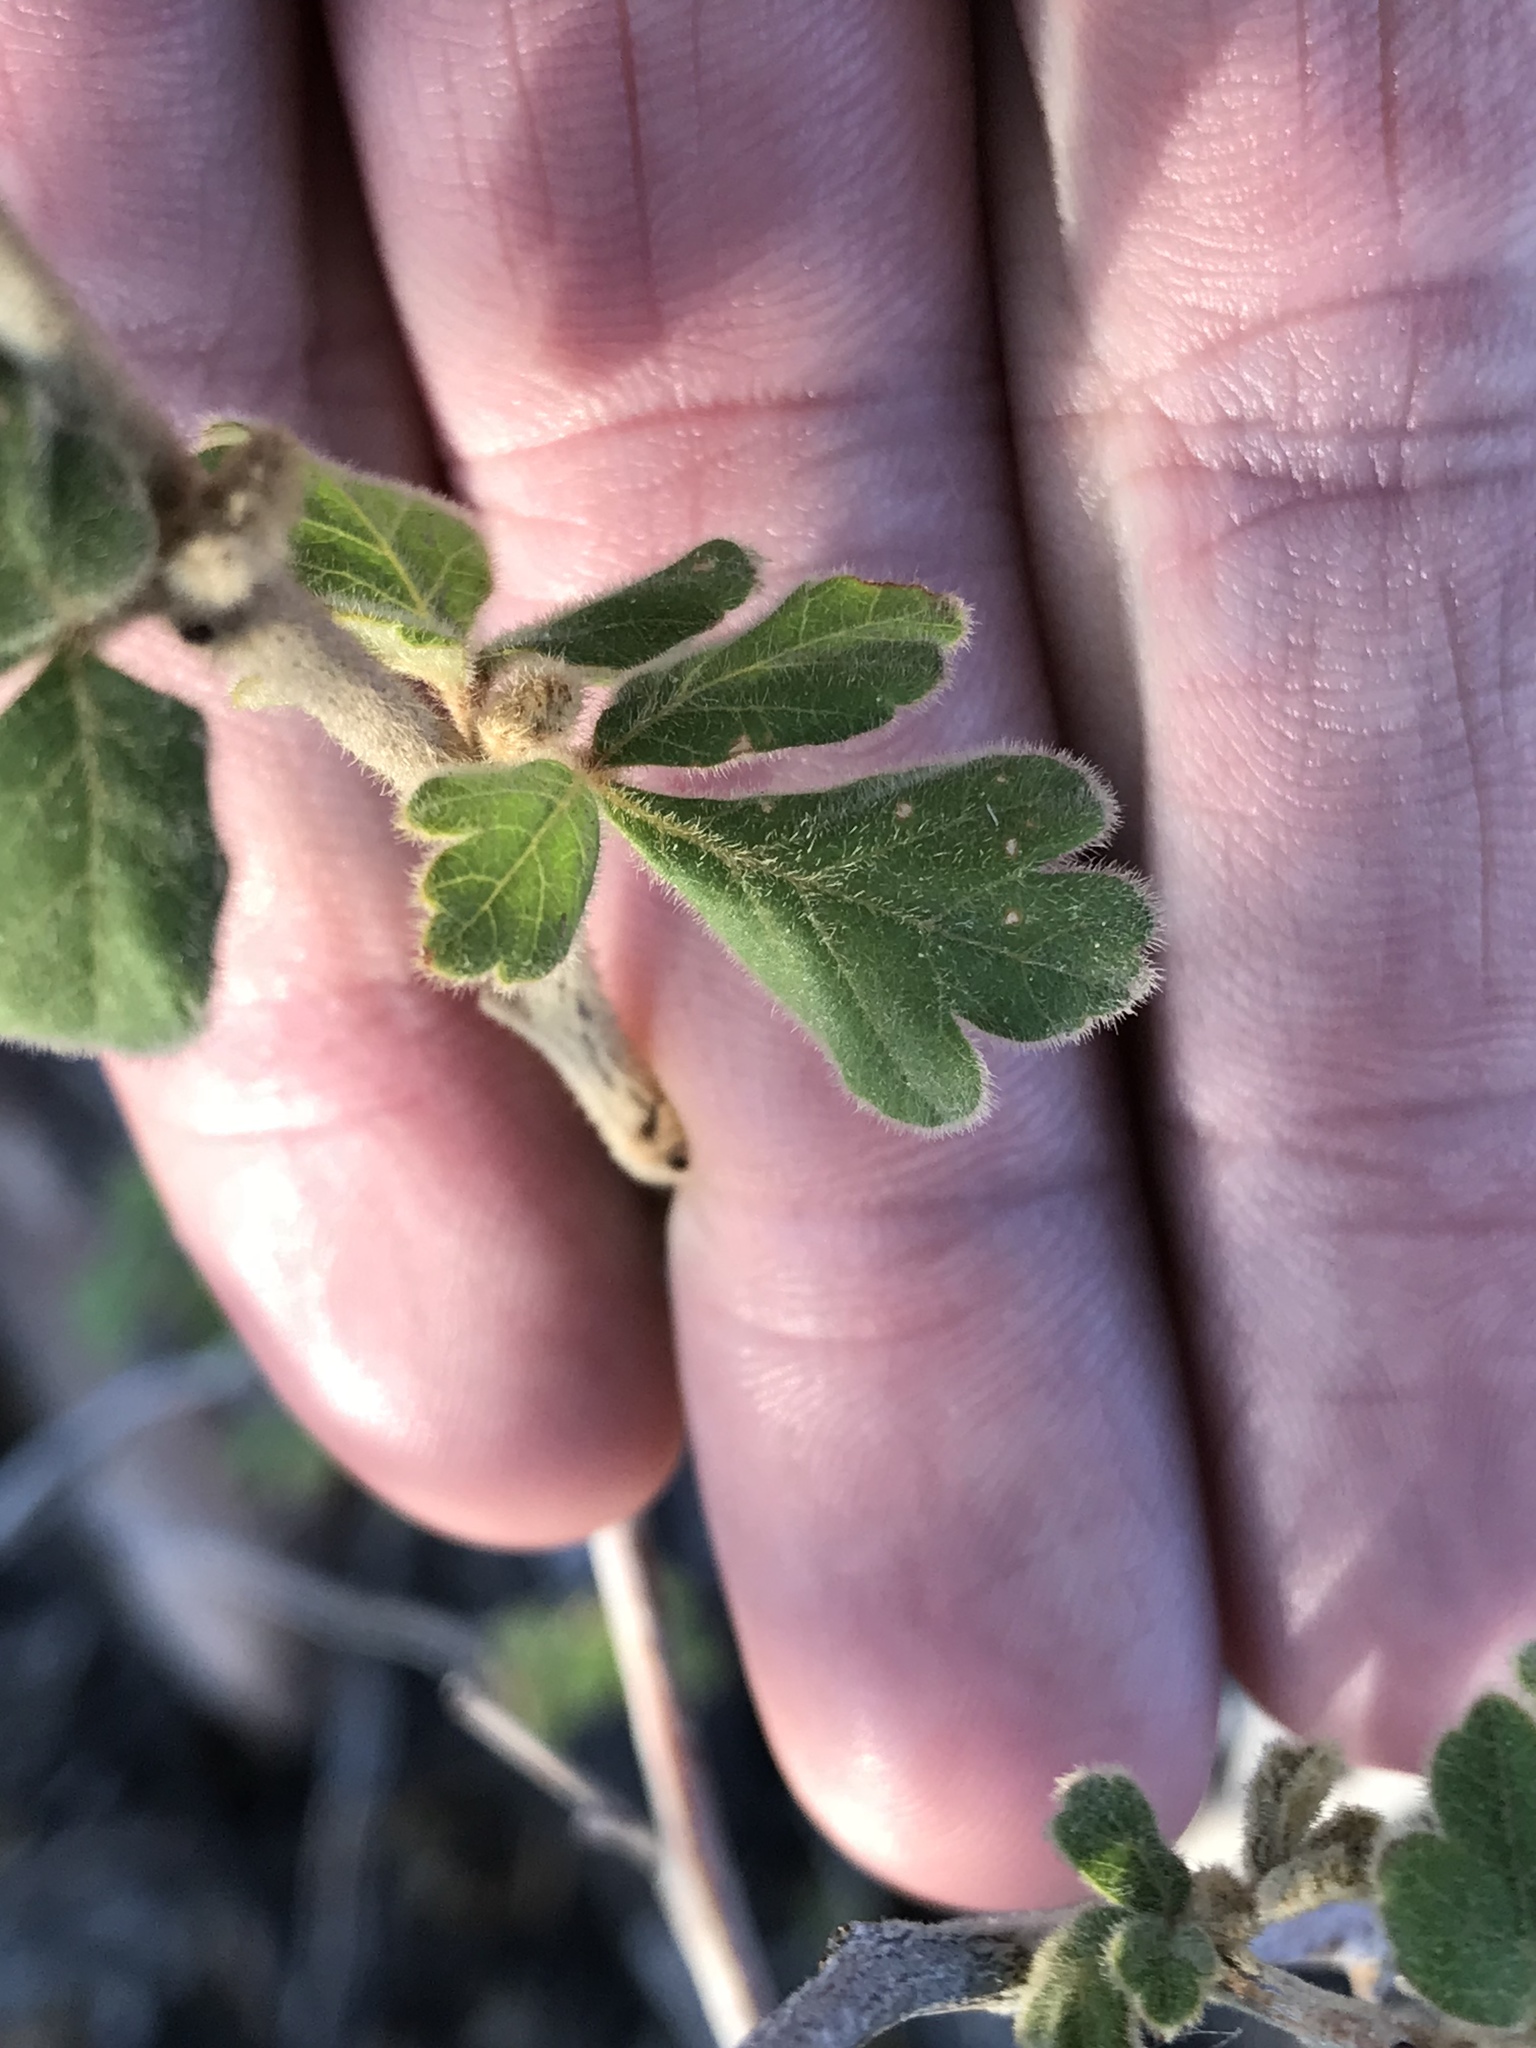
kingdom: Plantae
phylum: Tracheophyta
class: Magnoliopsida
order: Sapindales
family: Anacardiaceae
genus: Rhus
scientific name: Rhus aromatica
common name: Aromatic sumac
